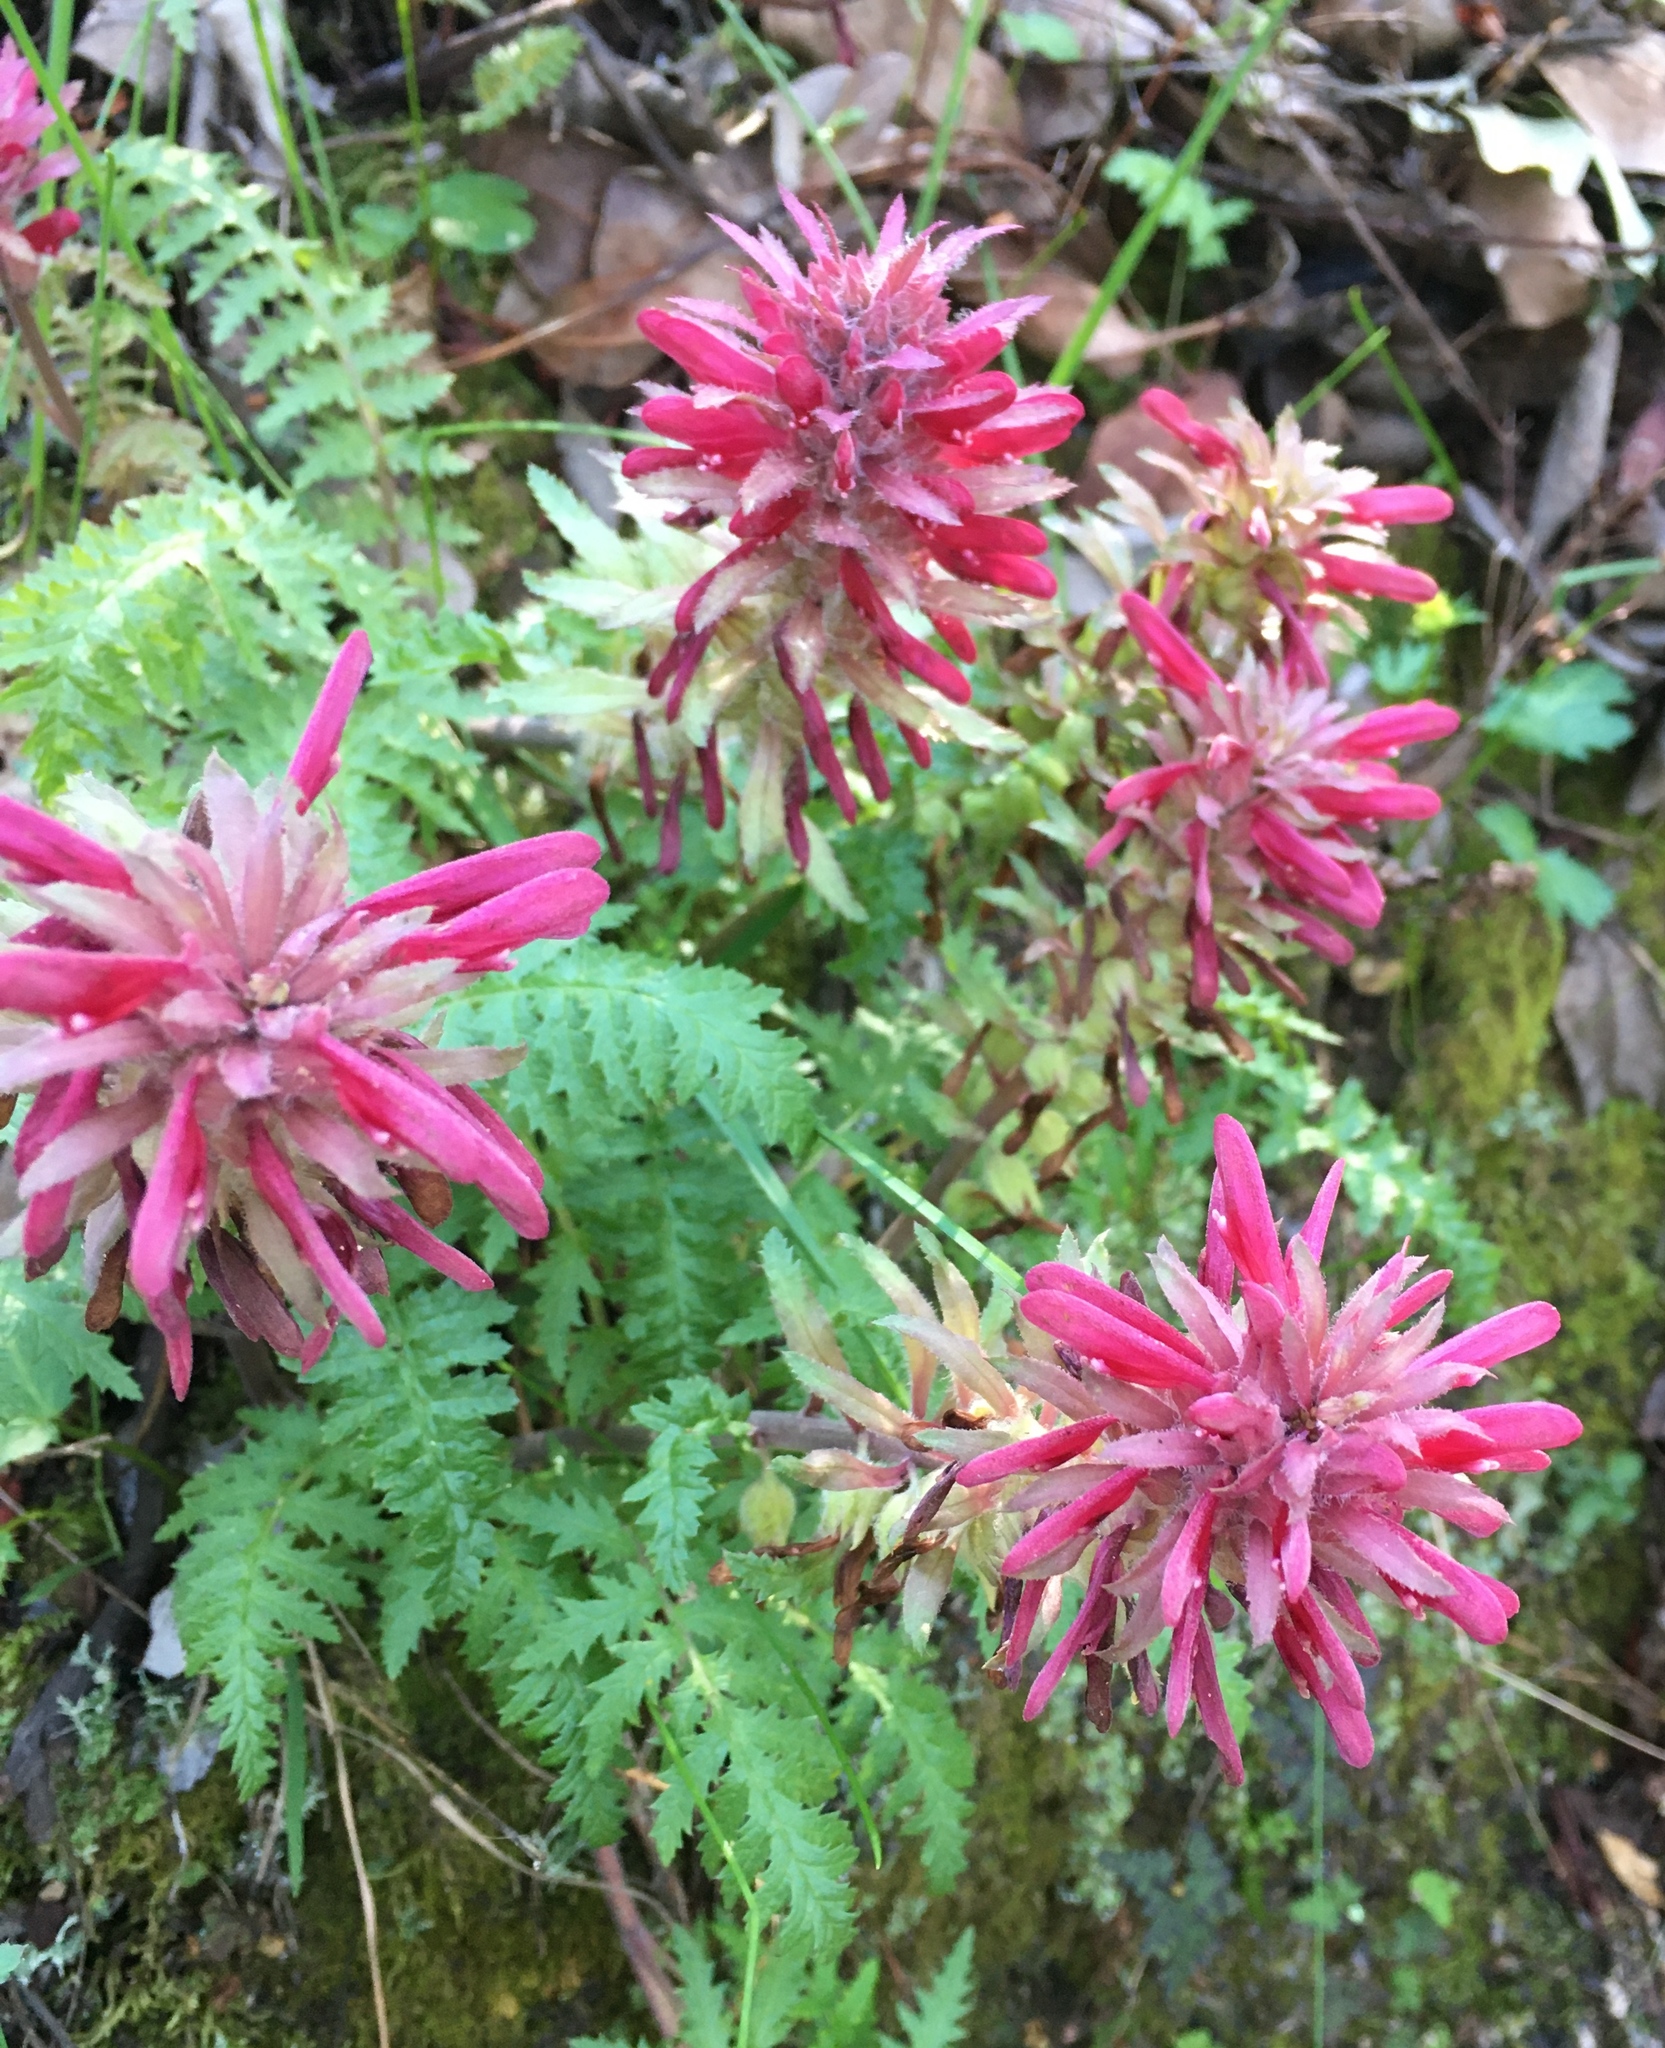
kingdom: Plantae
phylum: Tracheophyta
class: Magnoliopsida
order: Lamiales
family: Orobanchaceae
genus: Pedicularis
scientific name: Pedicularis densiflora
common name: Indian warrior
